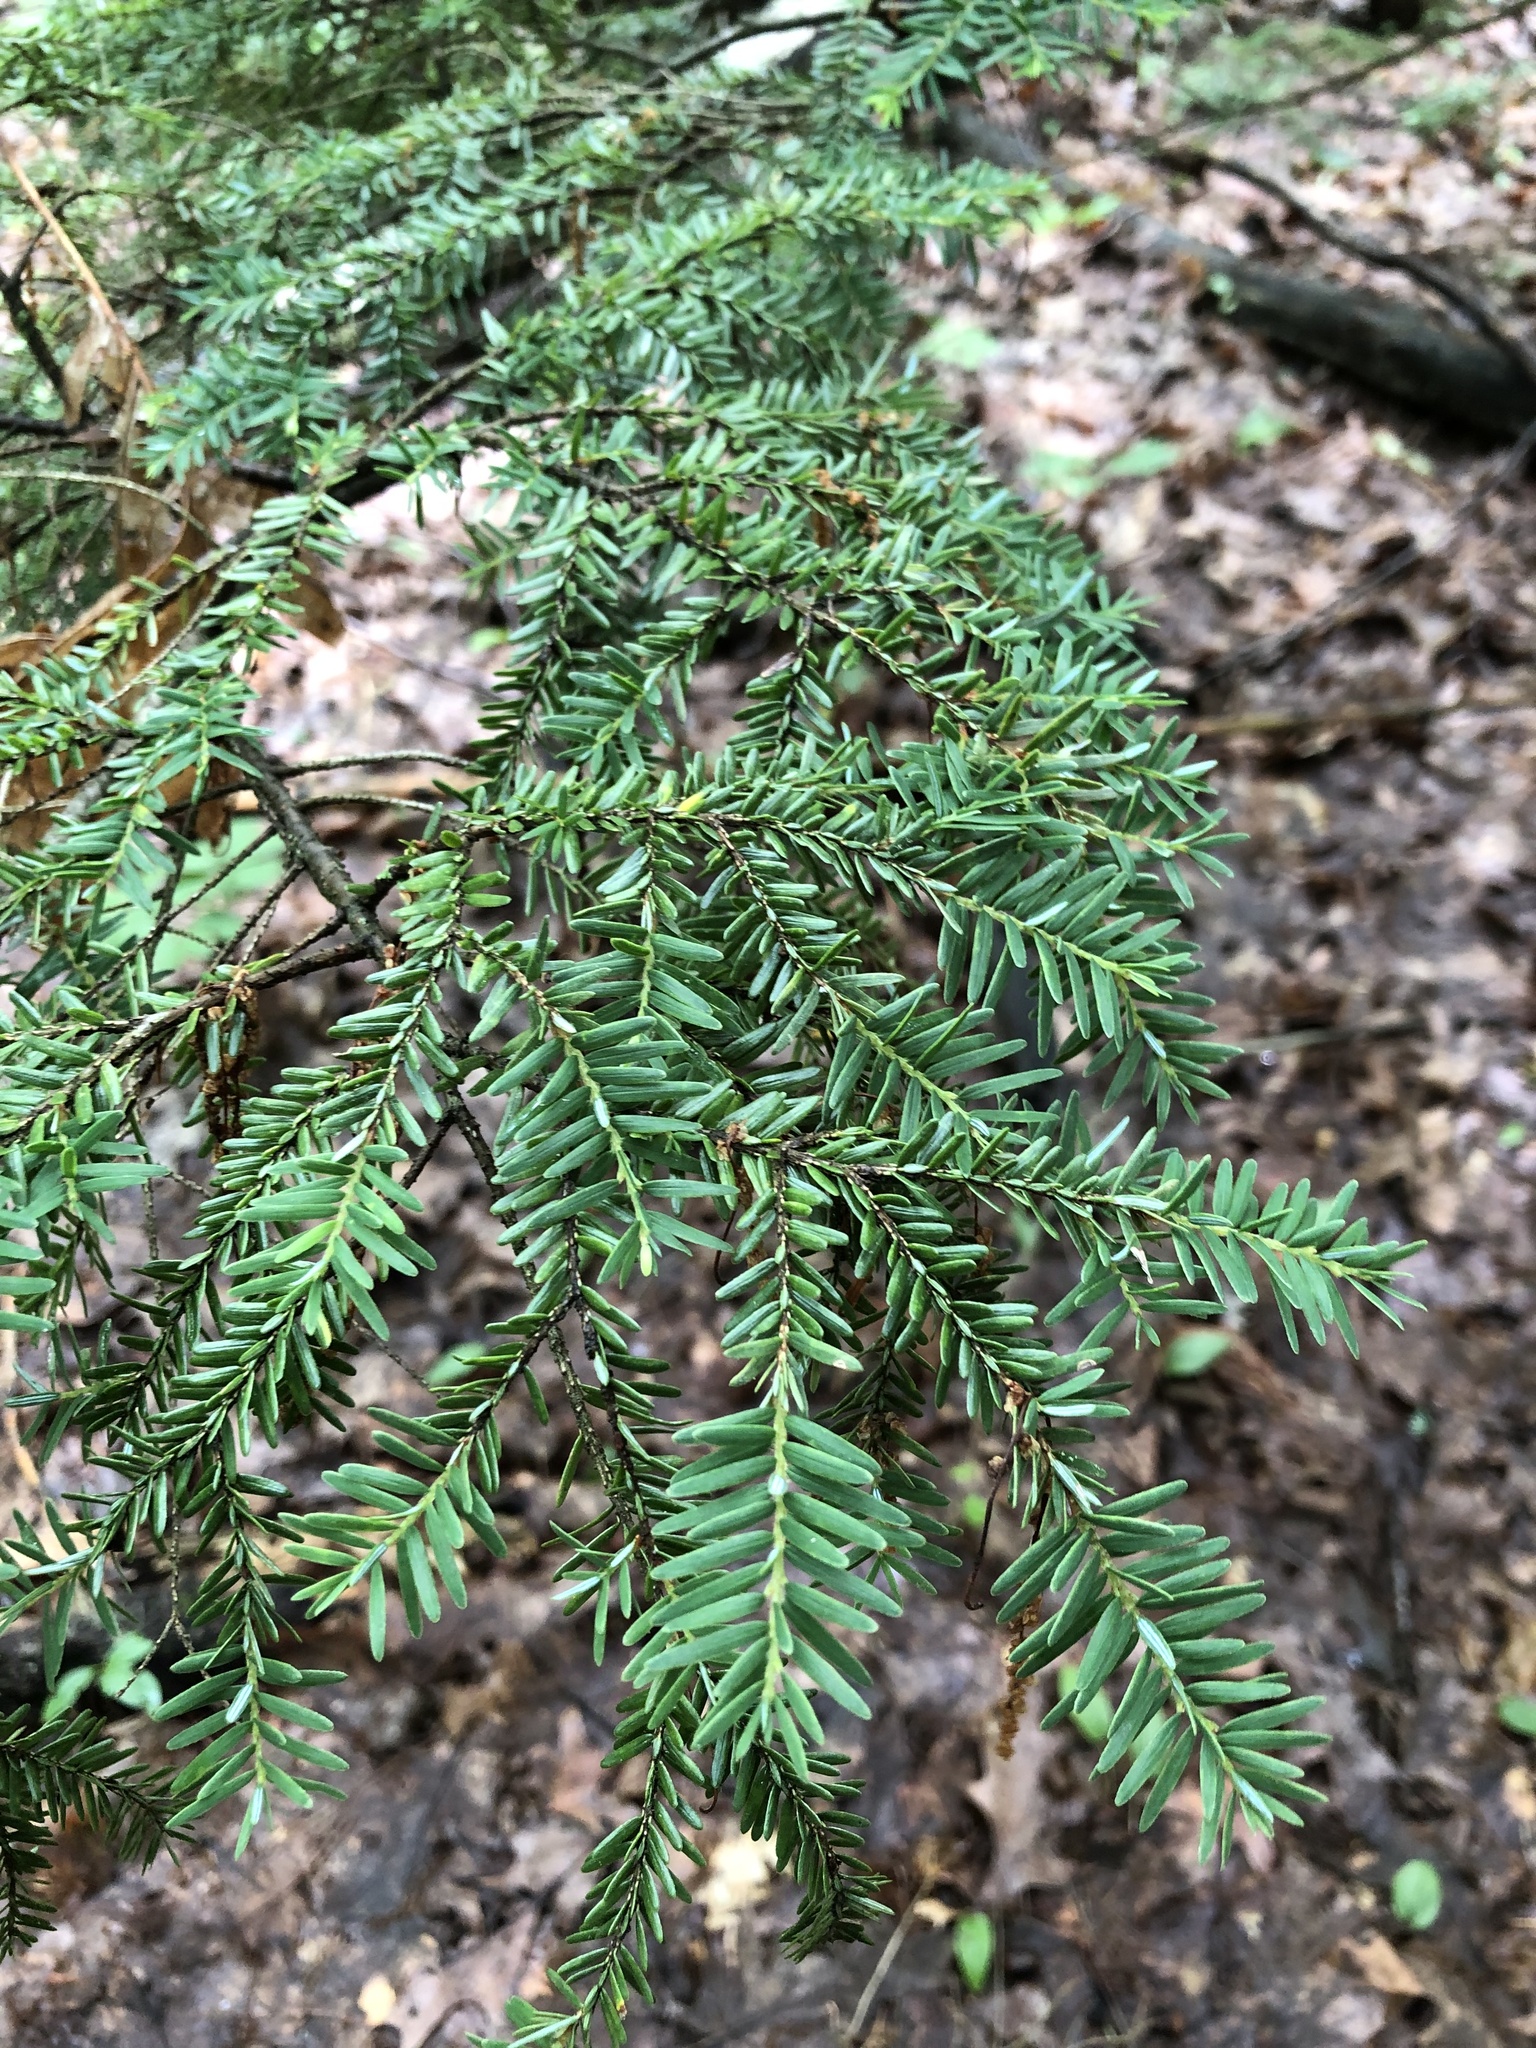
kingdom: Plantae
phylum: Tracheophyta
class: Pinopsida
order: Pinales
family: Pinaceae
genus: Tsuga
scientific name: Tsuga canadensis
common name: Eastern hemlock
